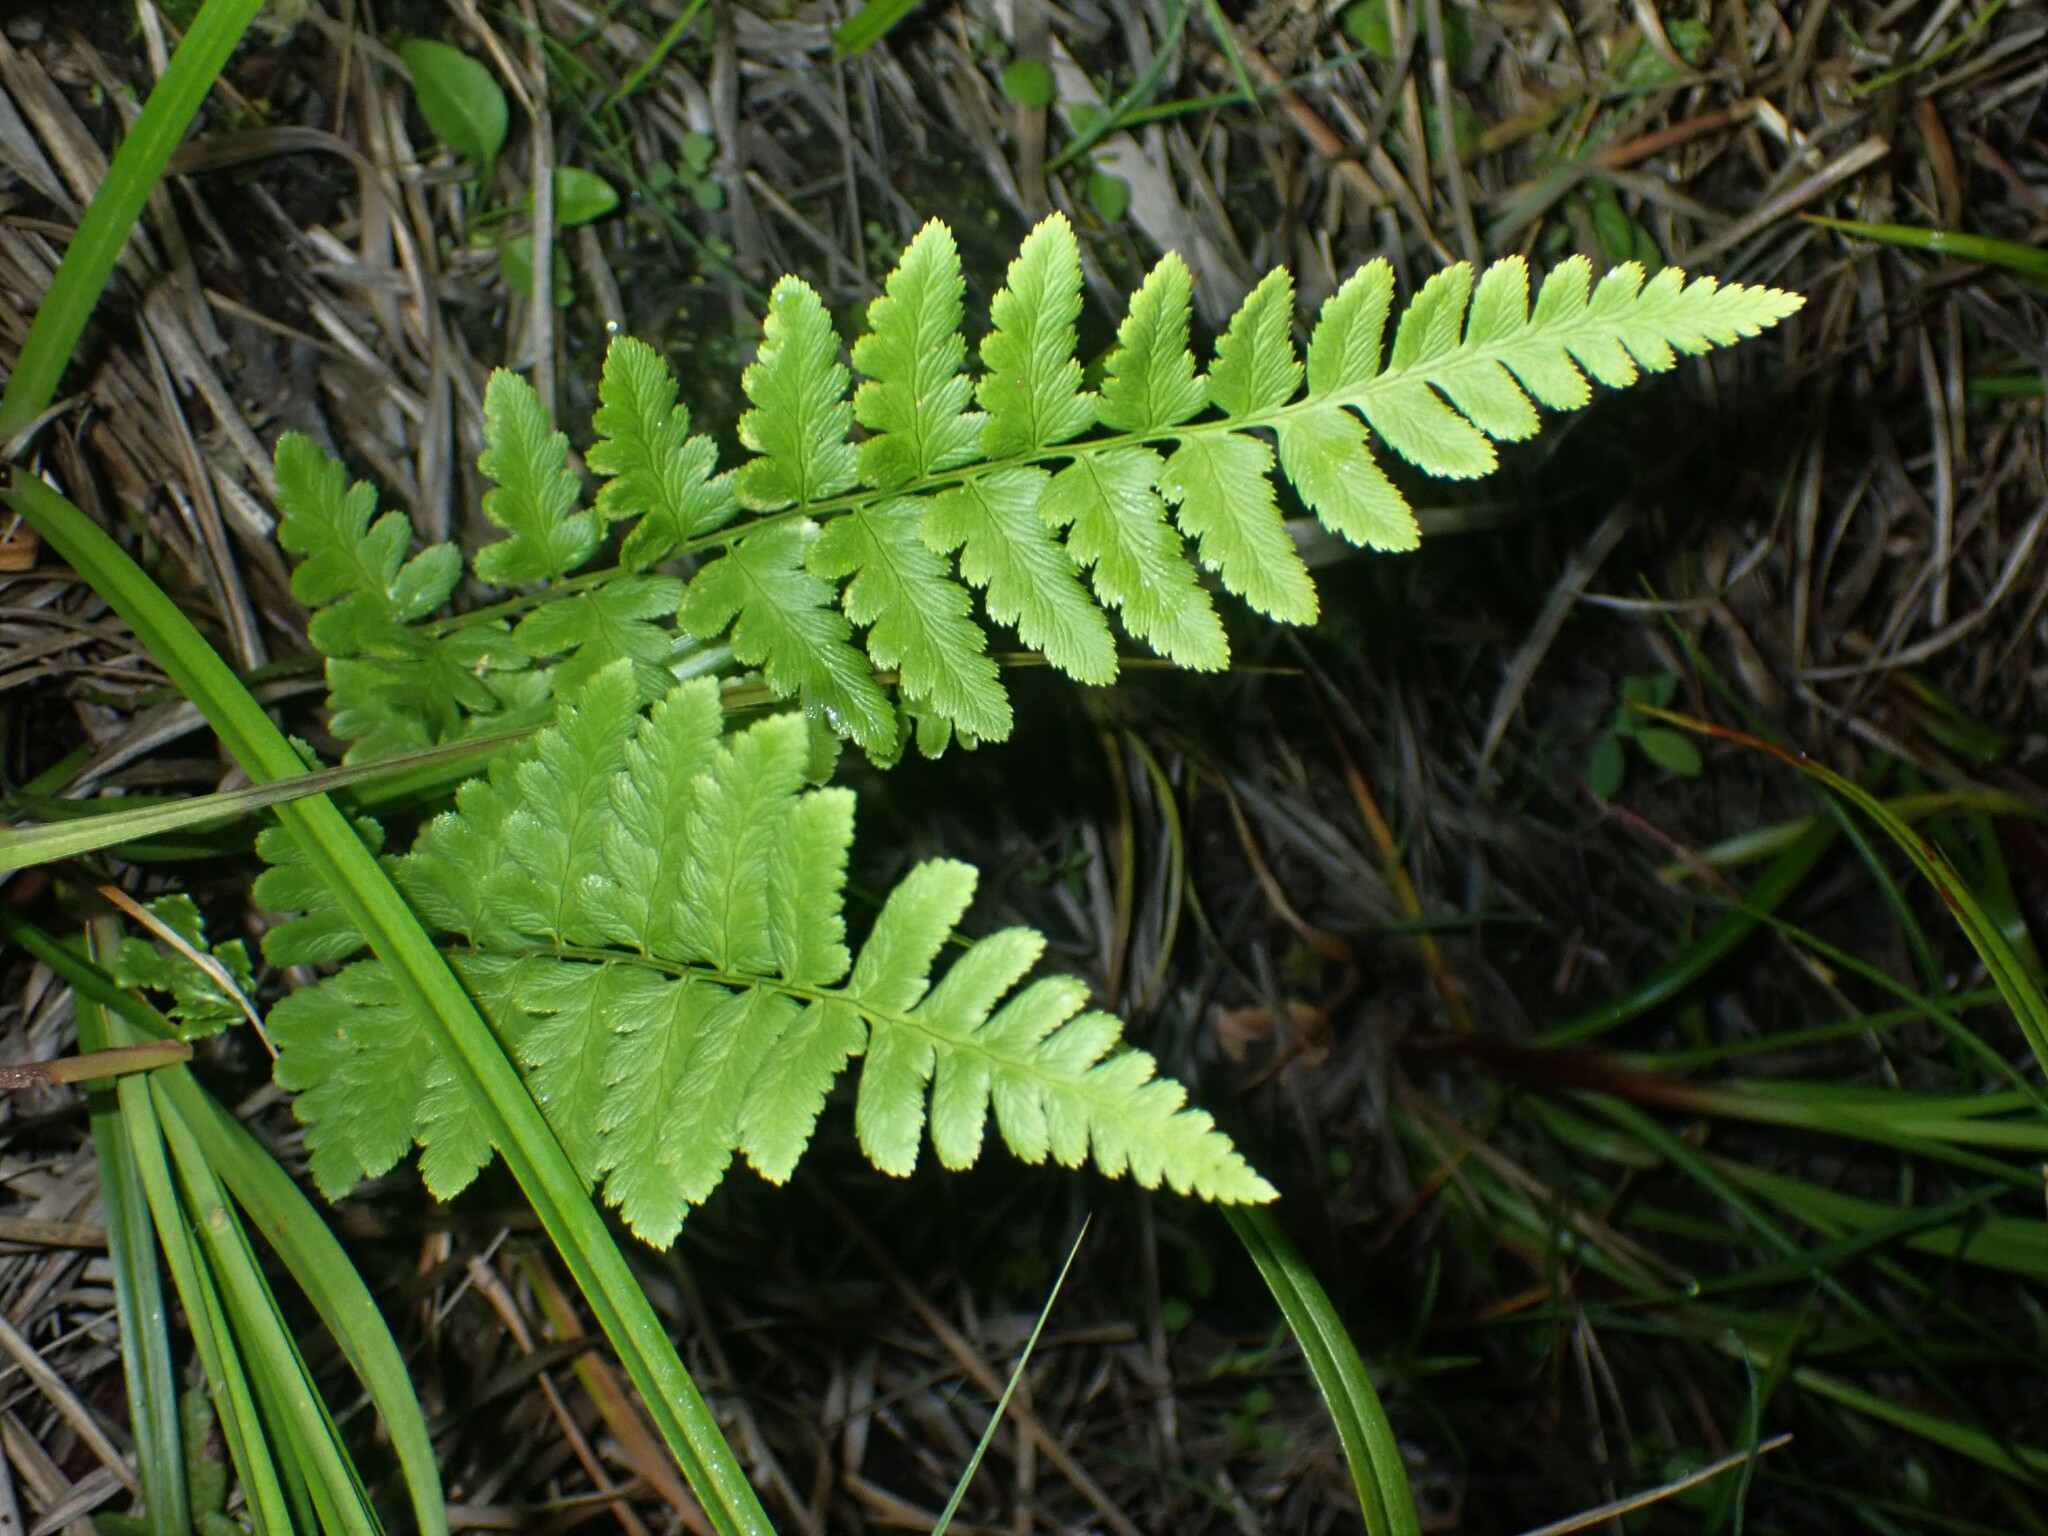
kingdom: Plantae
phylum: Tracheophyta
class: Polypodiopsida
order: Polypodiales
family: Dryopteridaceae
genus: Dryopteris
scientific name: Dryopteris cristata
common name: Crested wood fern
